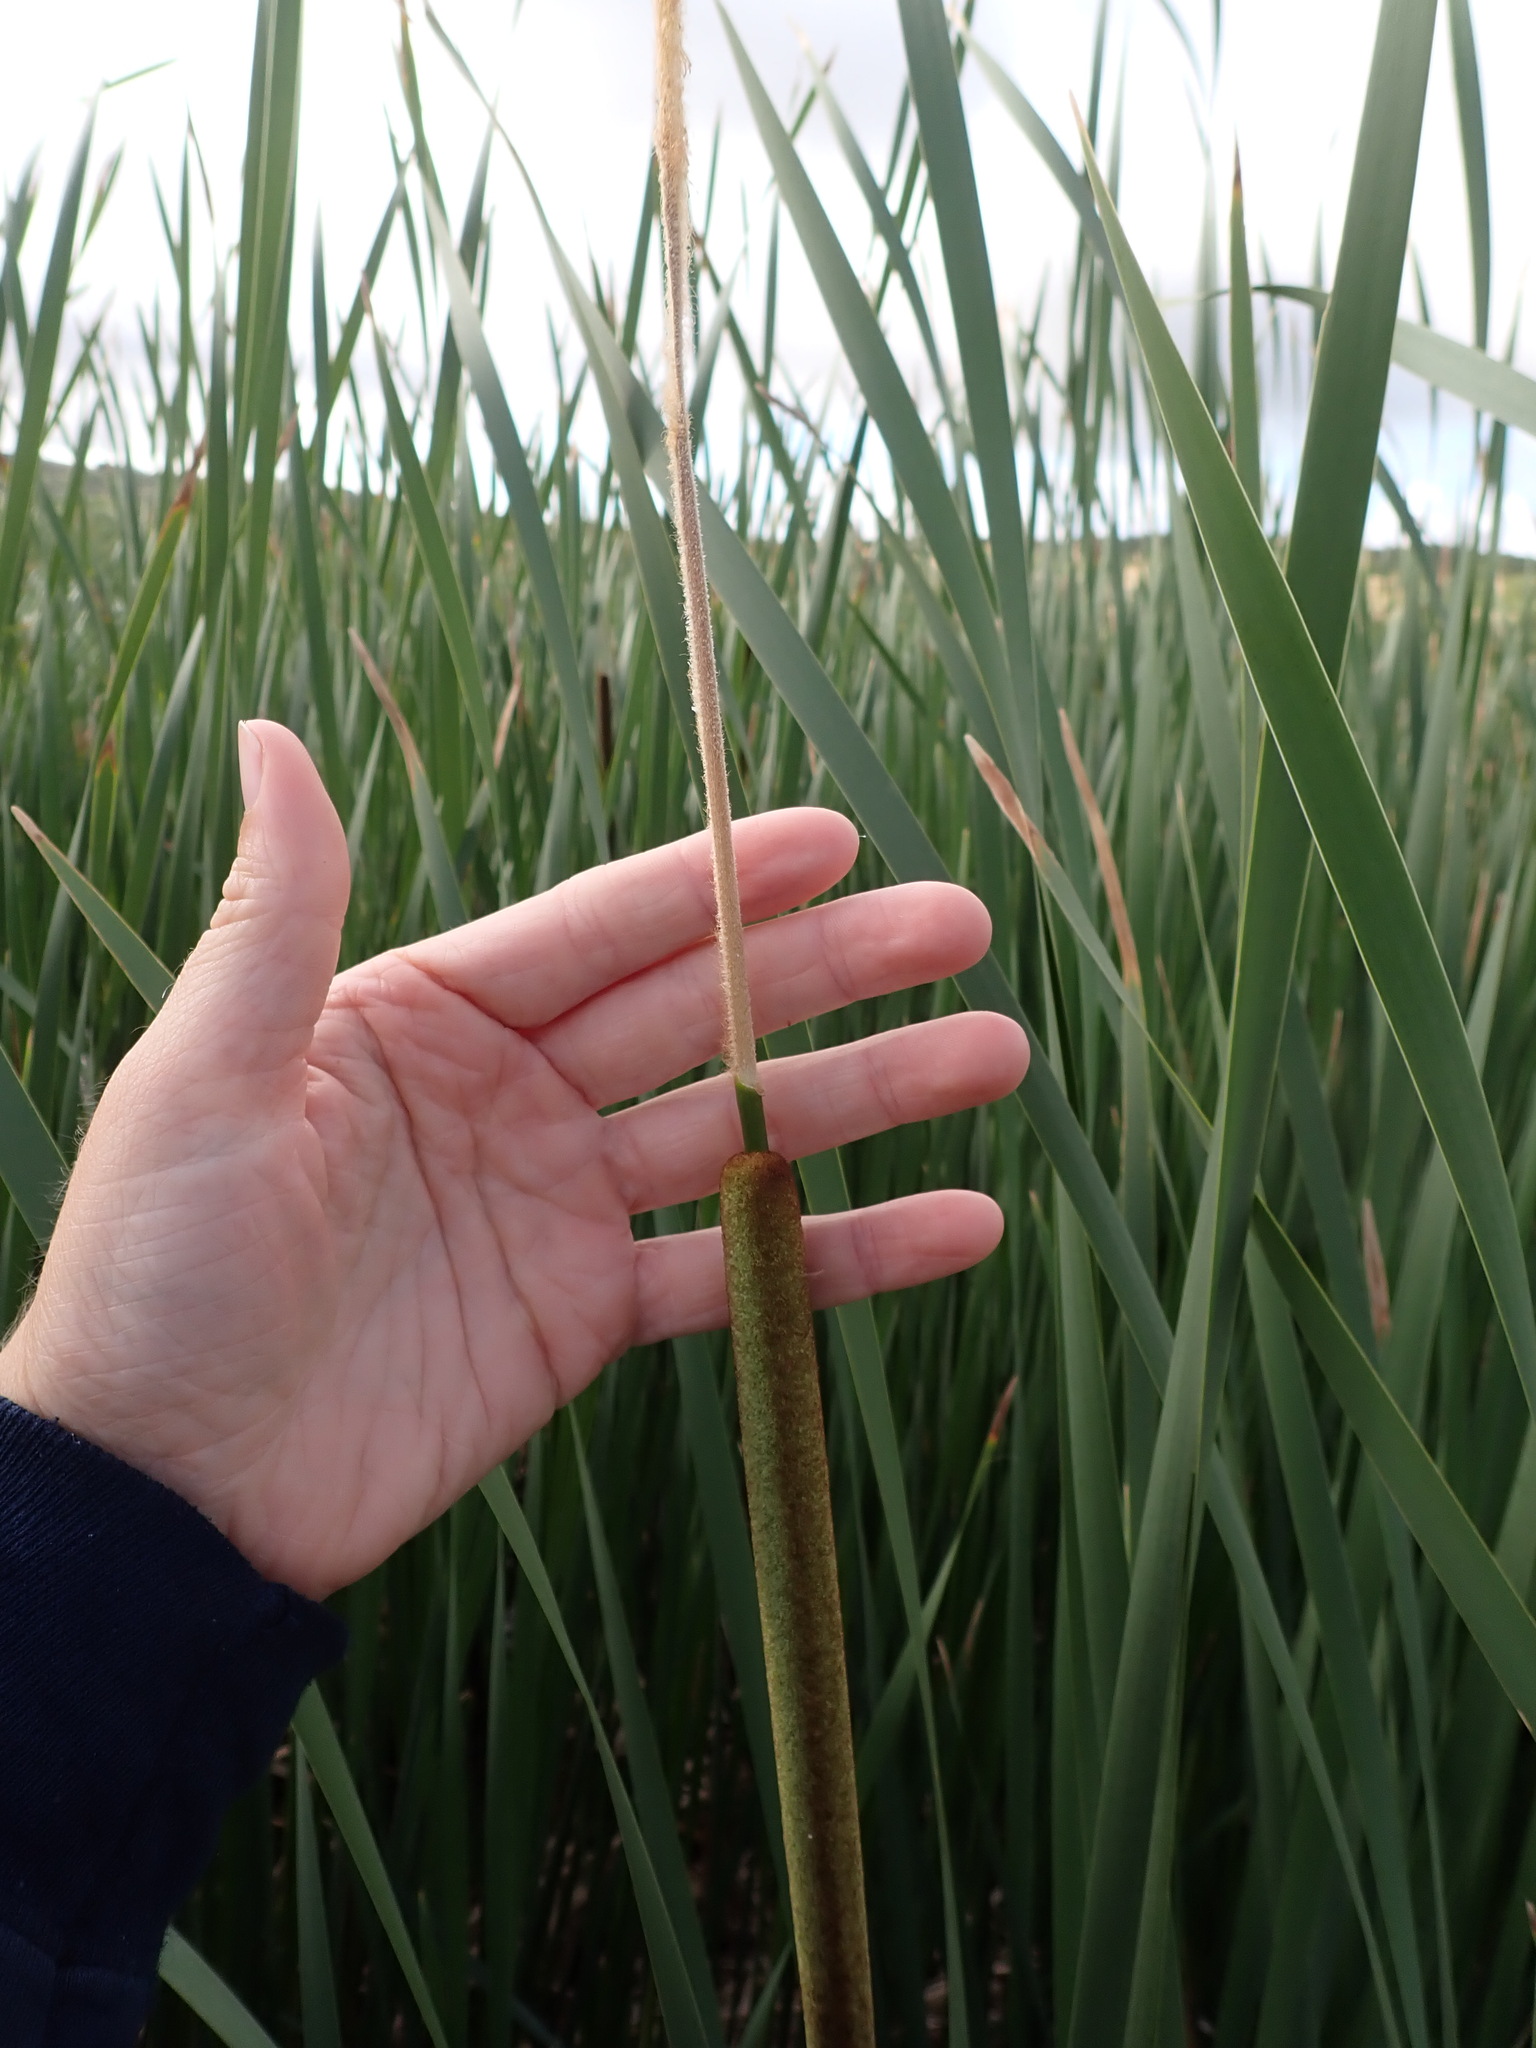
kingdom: Plantae
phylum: Tracheophyta
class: Liliopsida
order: Poales
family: Typhaceae
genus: Typha
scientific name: Typha angustifolia
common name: Lesser bulrush
